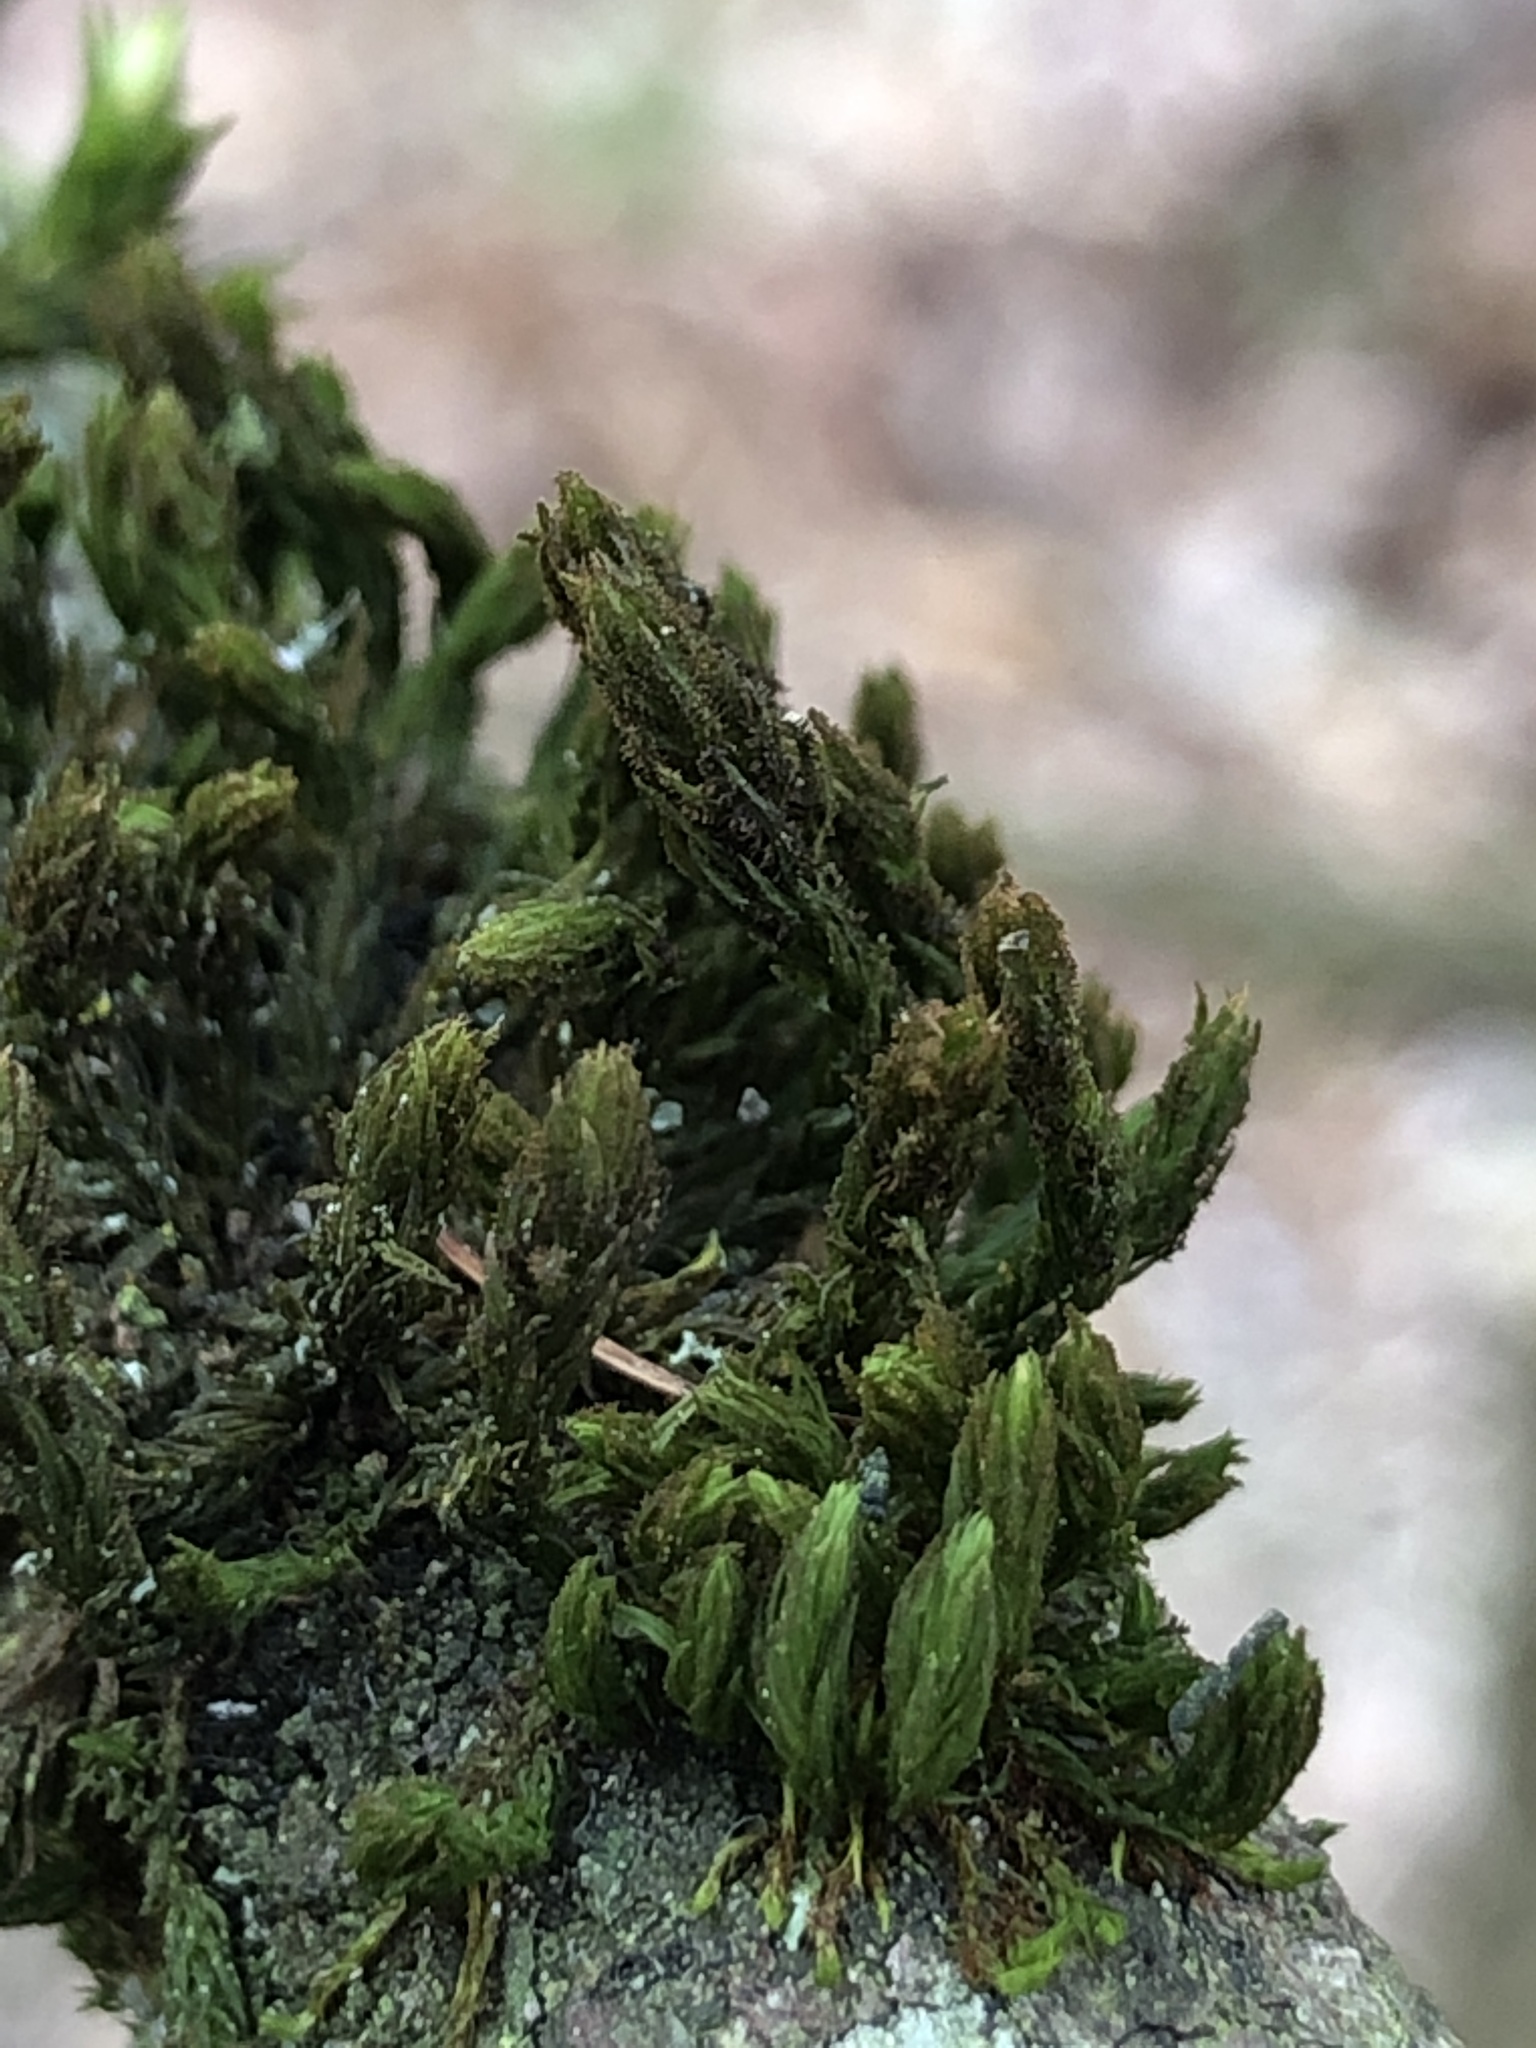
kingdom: Plantae
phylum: Bryophyta
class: Bryopsida
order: Orthotrichales
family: Orthotrichaceae
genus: Pulvigera
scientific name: Pulvigera lyellii
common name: Lyell's bristle-moss
